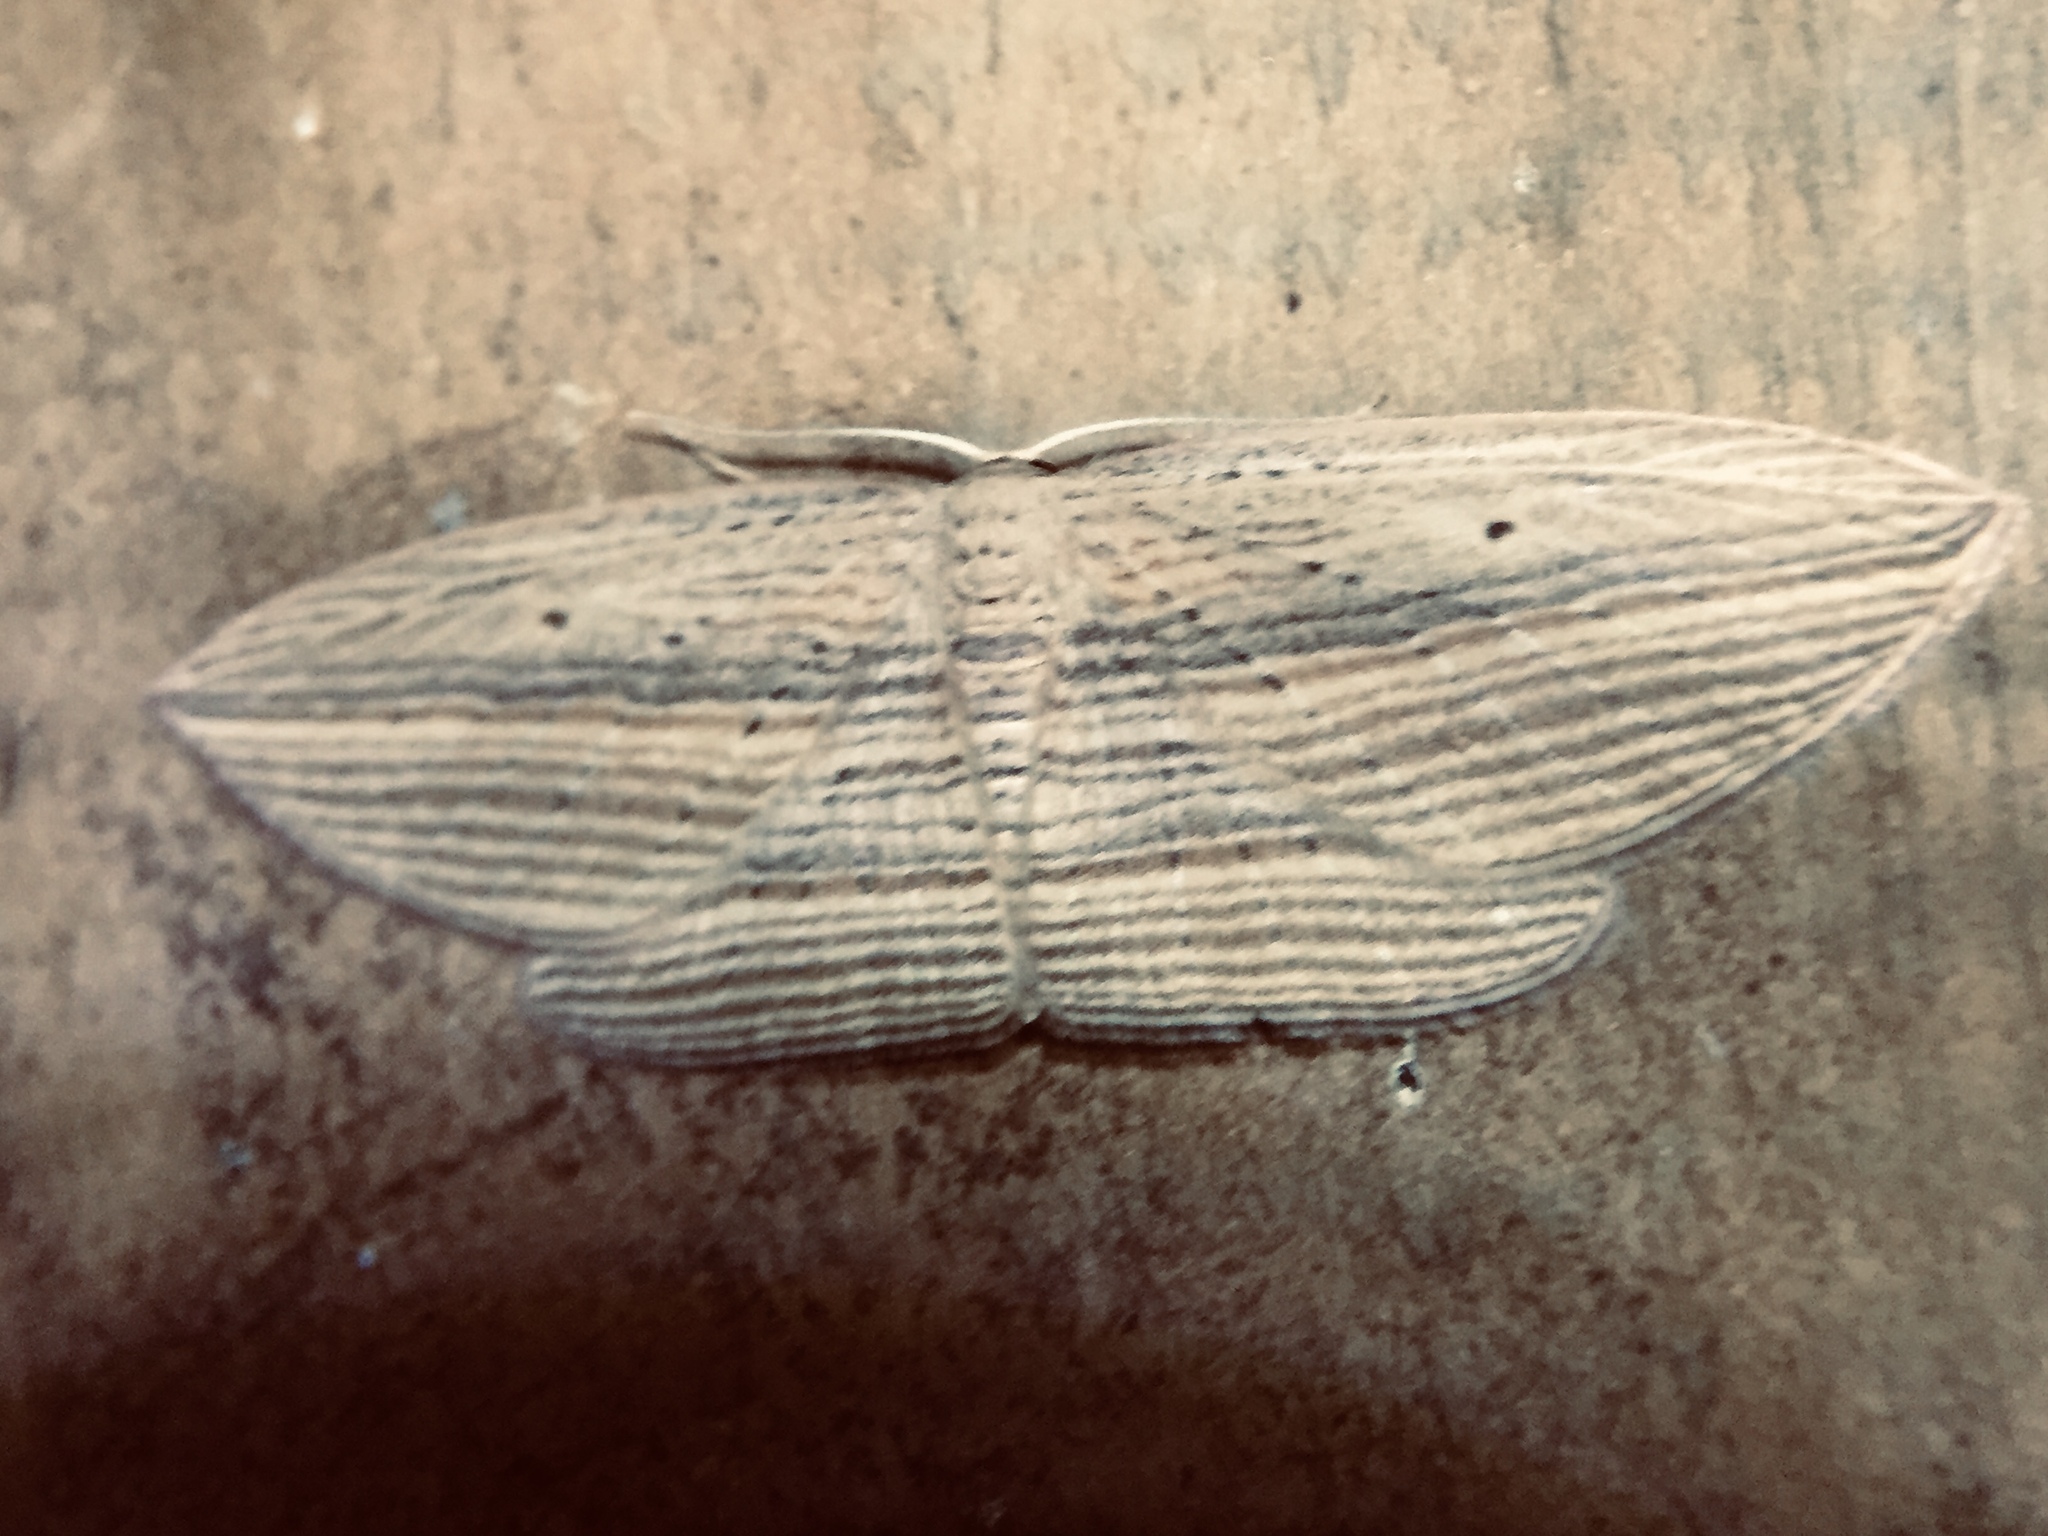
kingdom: Animalia
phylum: Arthropoda
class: Insecta
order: Lepidoptera
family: Geometridae
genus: Epiphryne
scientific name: Epiphryne verriculata
